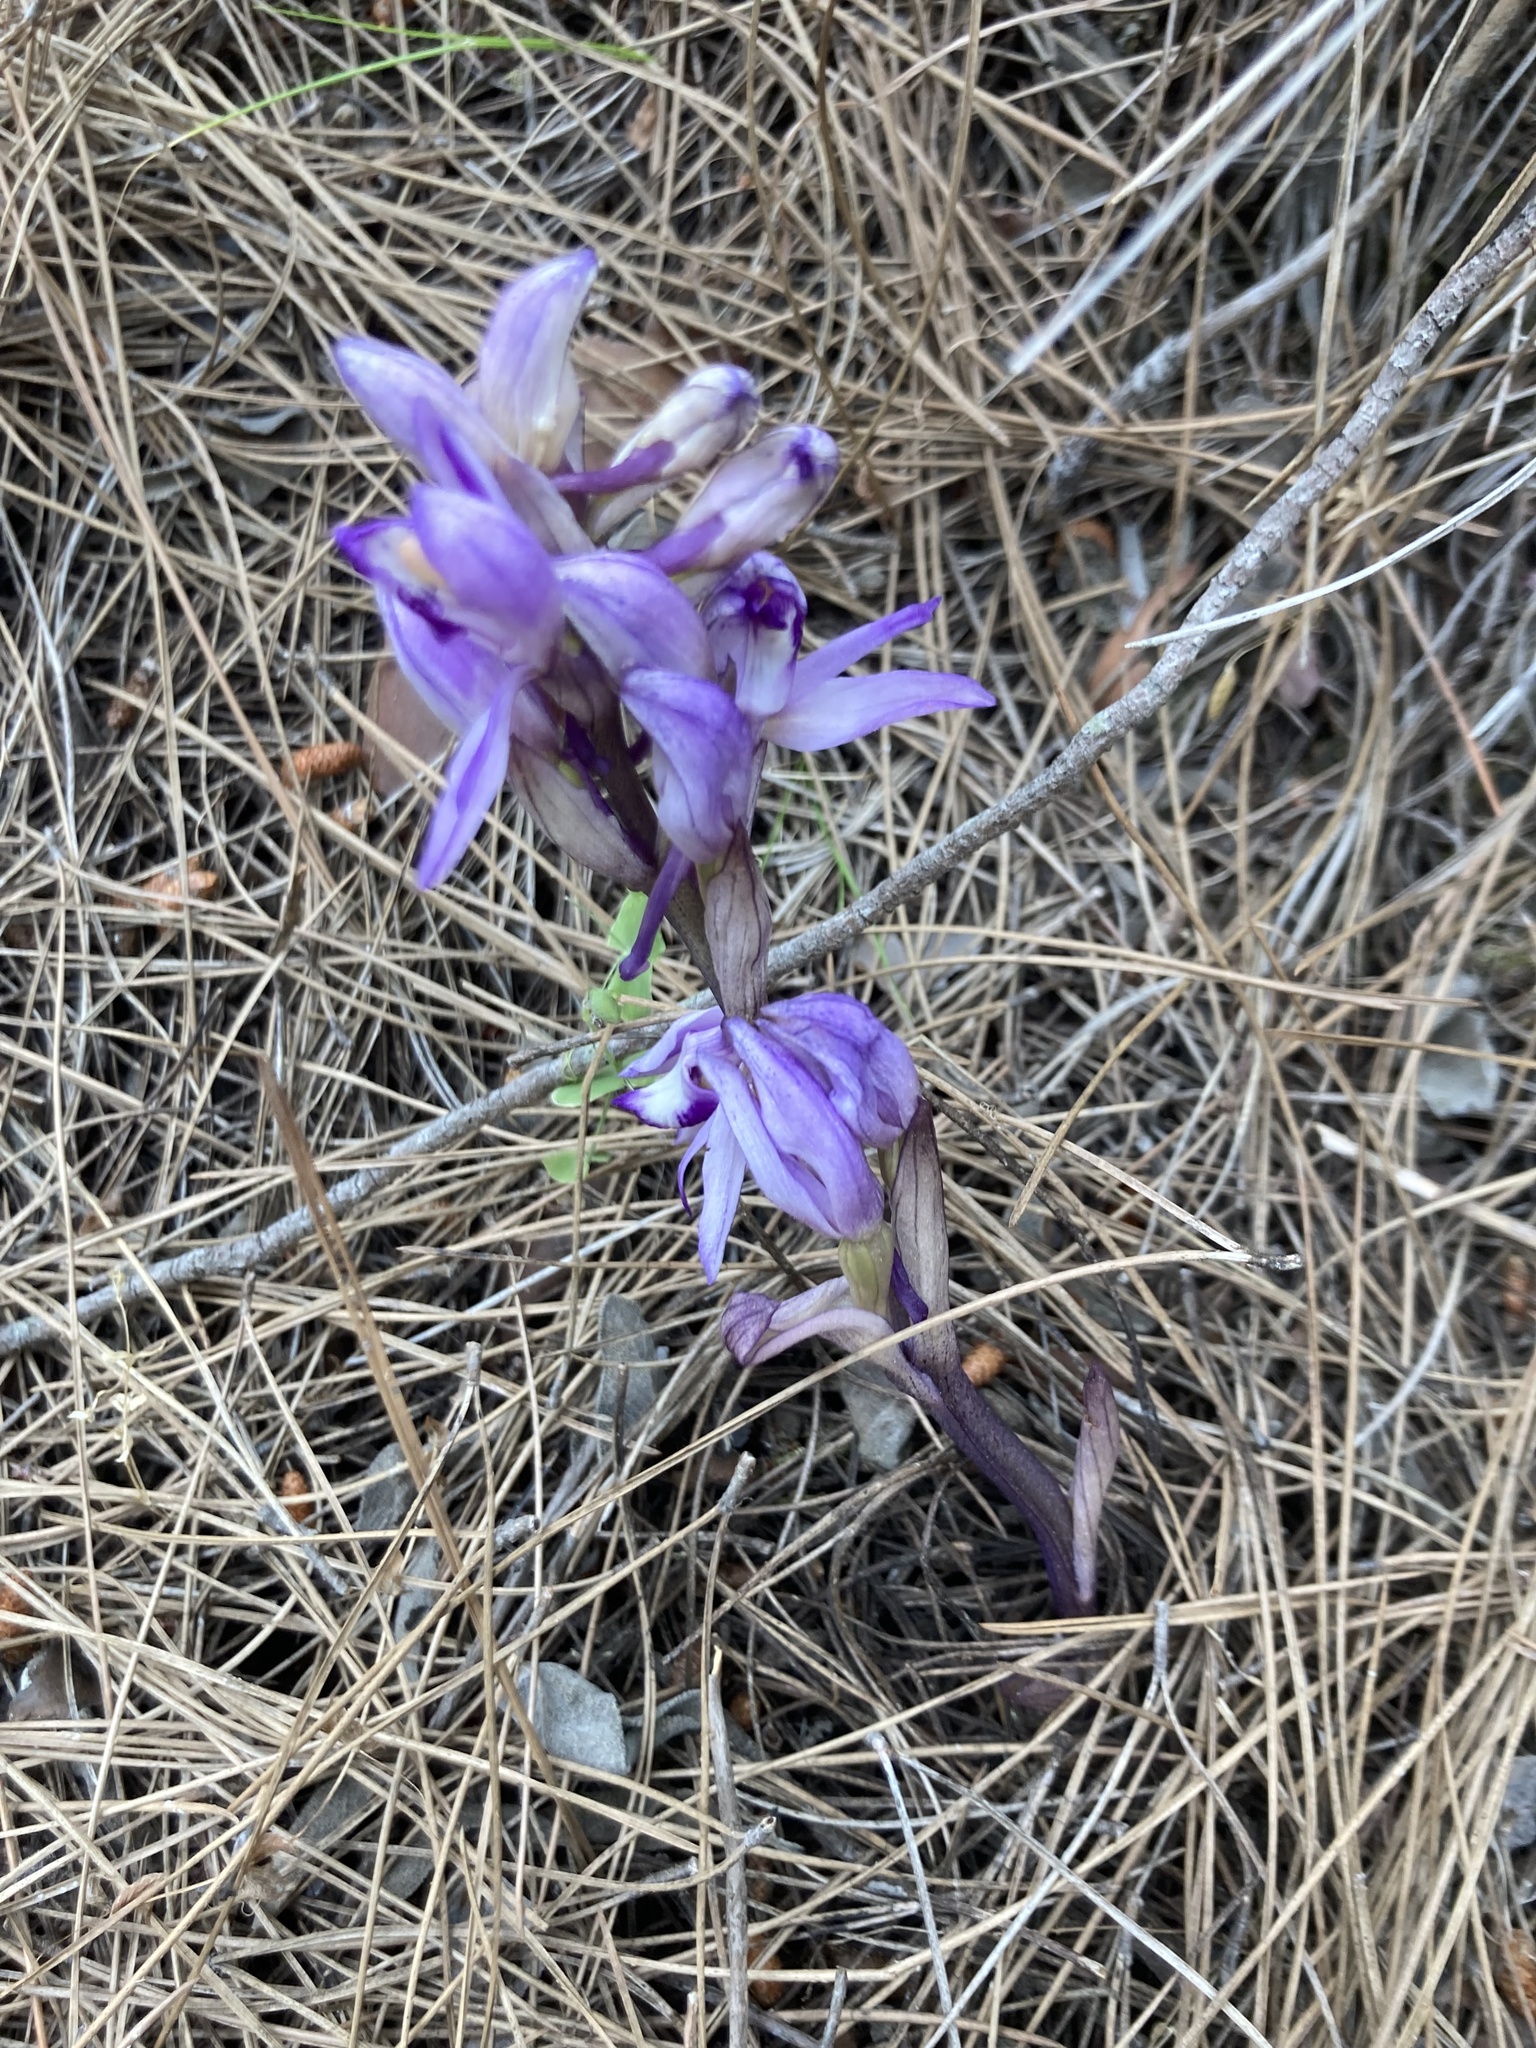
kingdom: Plantae
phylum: Tracheophyta
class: Liliopsida
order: Asparagales
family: Orchidaceae
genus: Limodorum
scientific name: Limodorum abortivum
